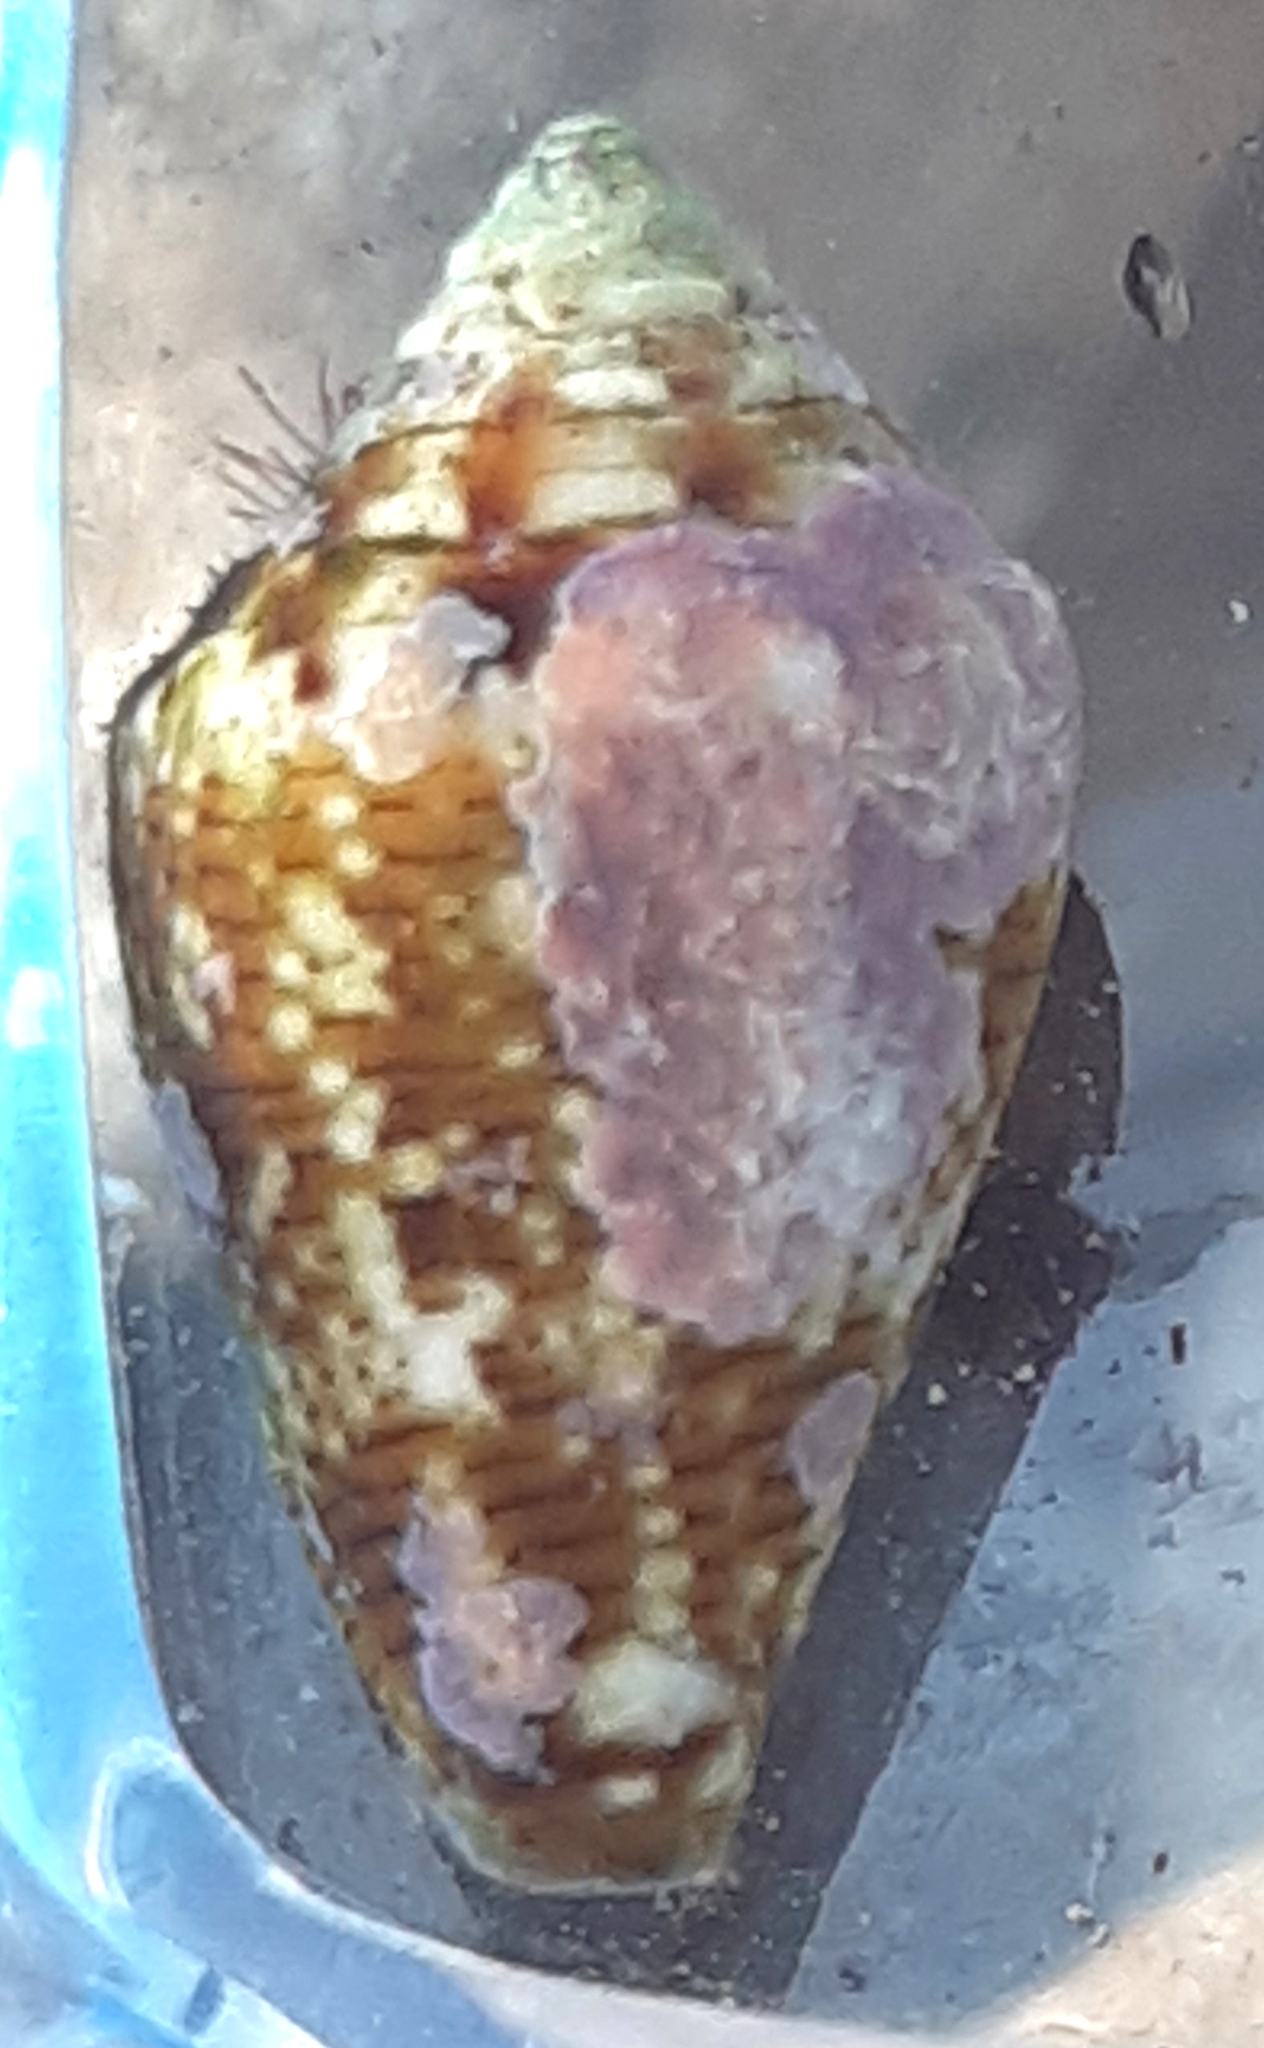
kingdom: Animalia
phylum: Mollusca
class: Gastropoda
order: Neogastropoda
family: Conidae
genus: Conus
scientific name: Conus ventricosus
